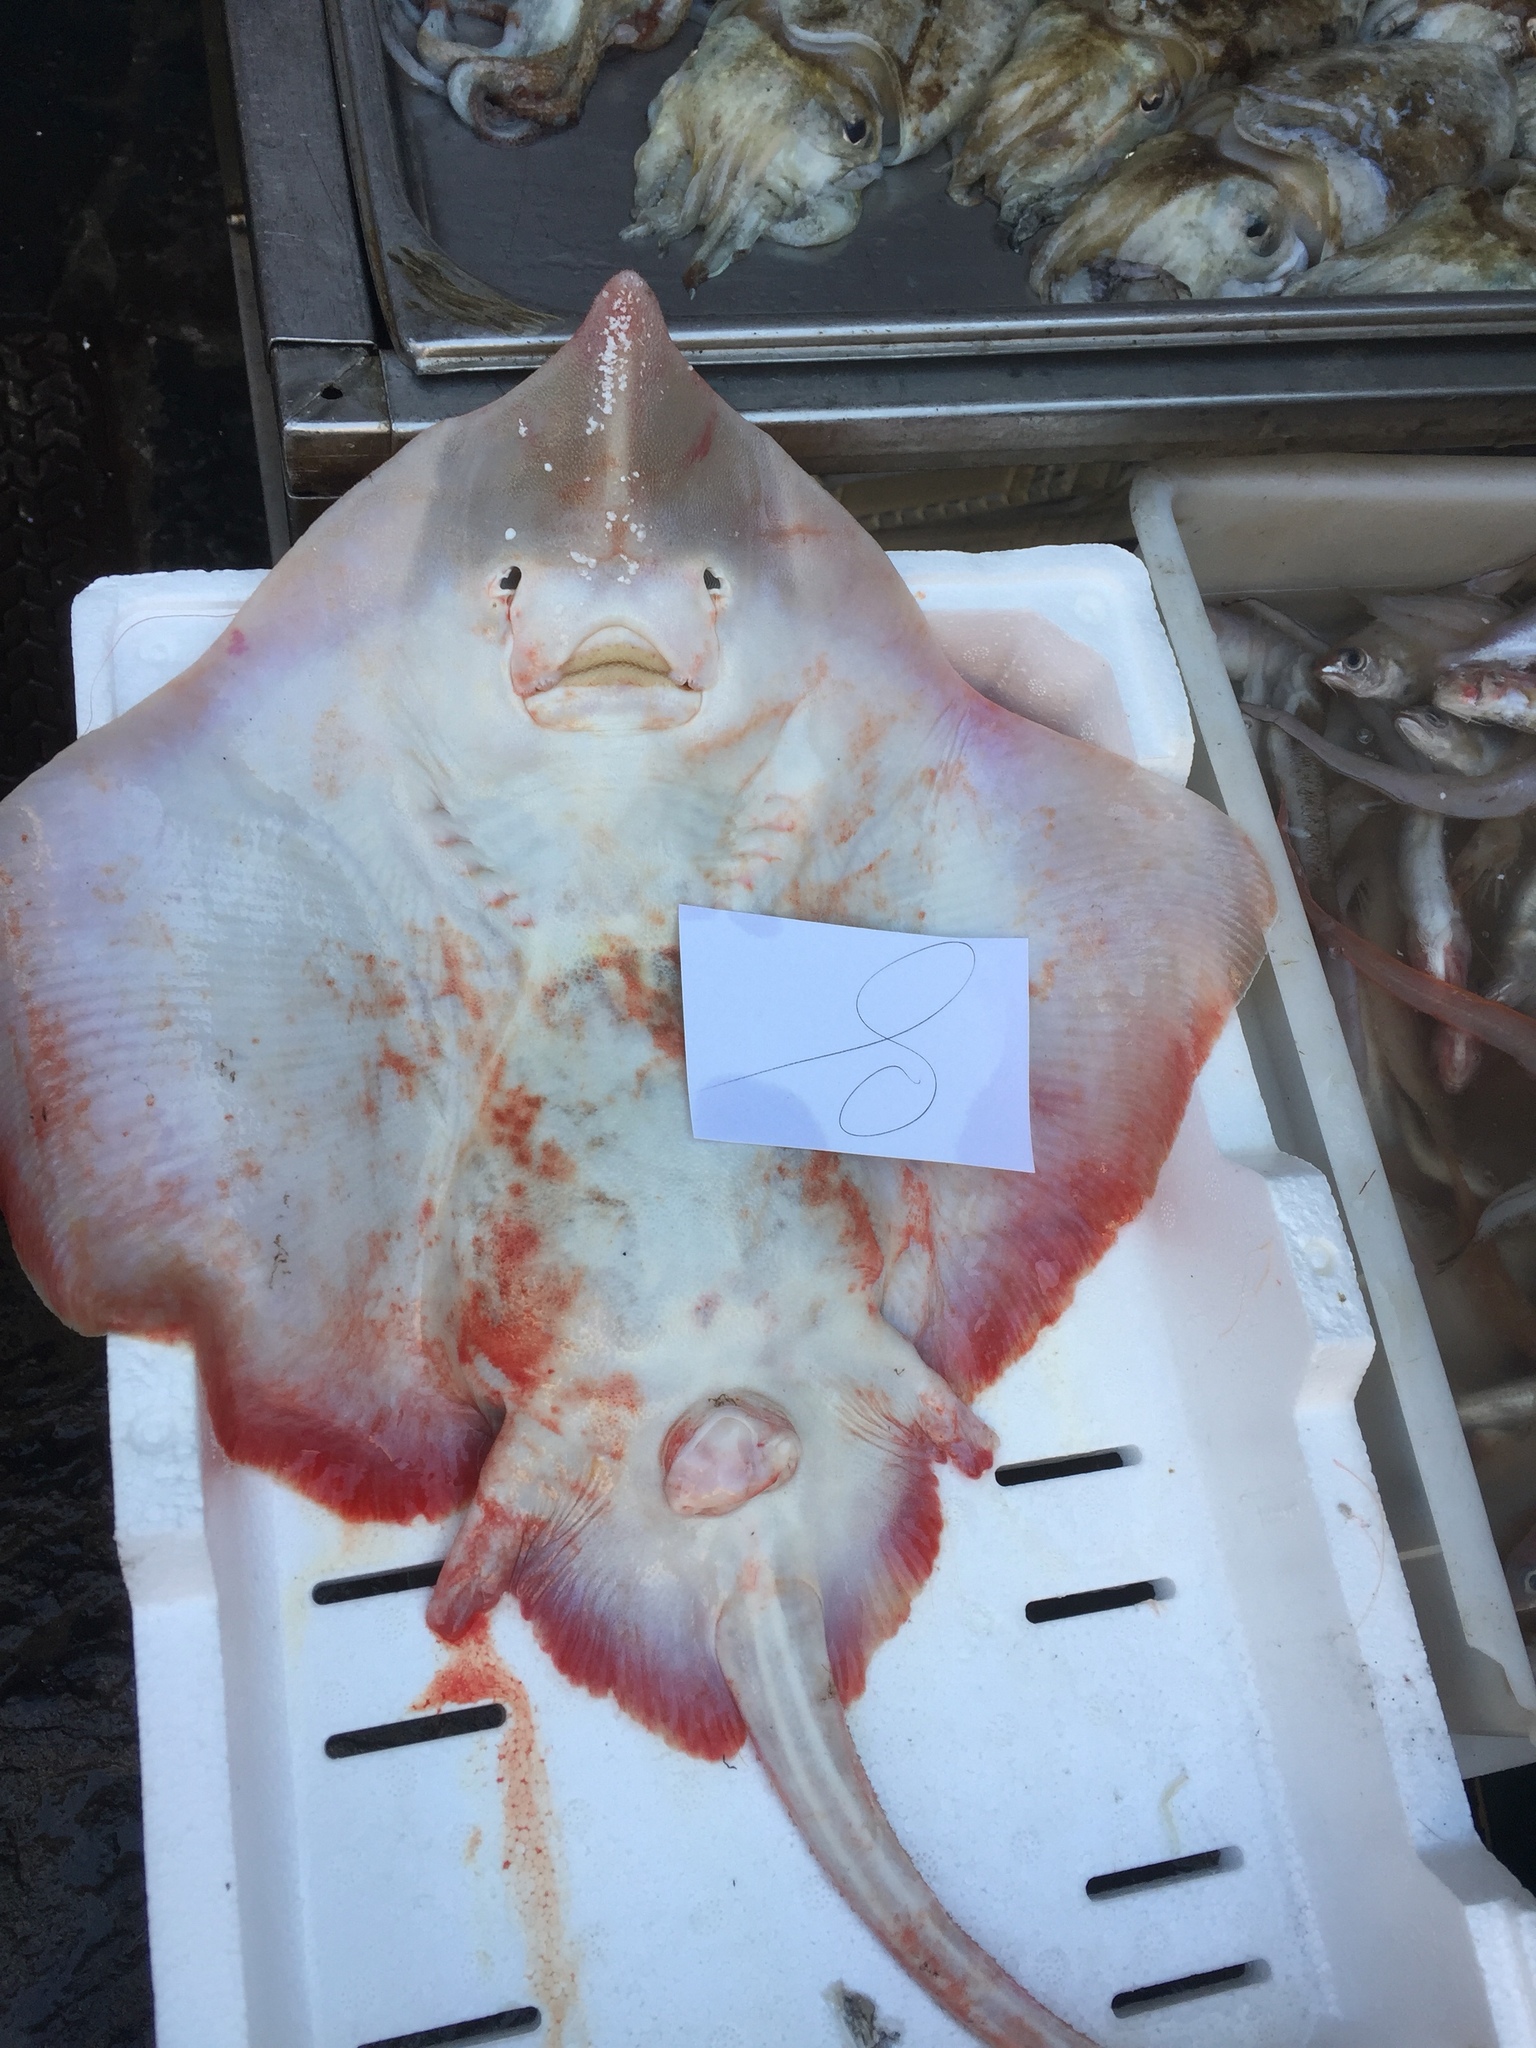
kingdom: Animalia
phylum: Chordata
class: Elasmobranchii
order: Rajiformes
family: Rajidae
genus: Rostroraja
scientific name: Rostroraja alba
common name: White skate
